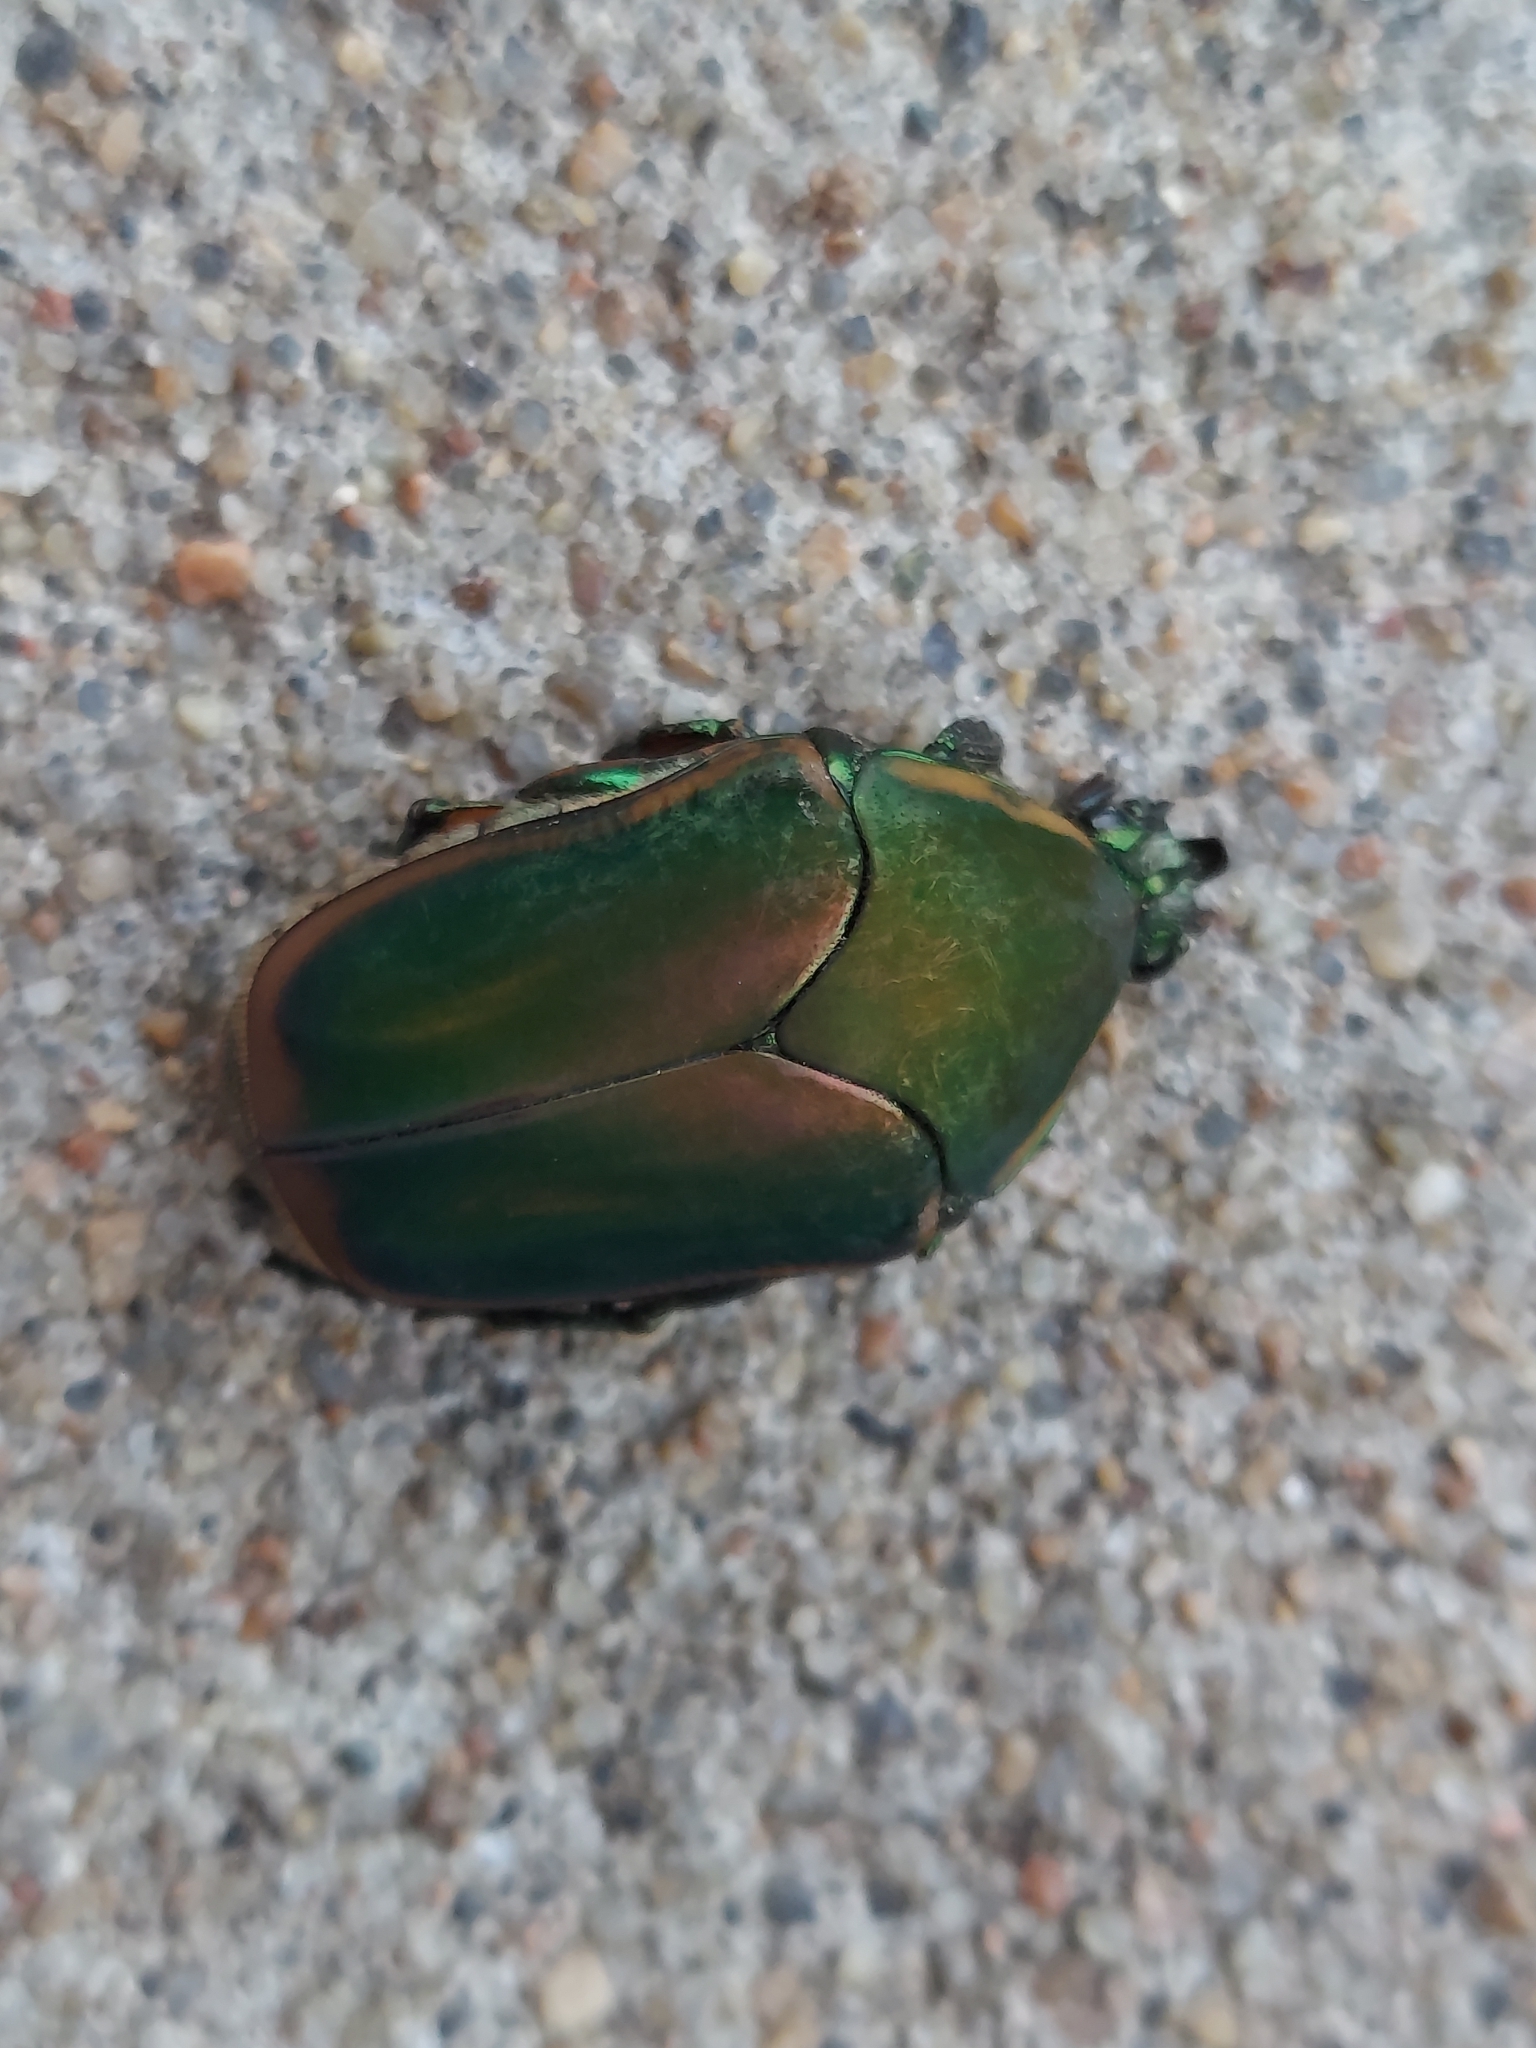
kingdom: Animalia
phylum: Arthropoda
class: Insecta
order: Coleoptera
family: Scarabaeidae
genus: Cotinis
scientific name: Cotinis nitida
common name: Common green june beetle
